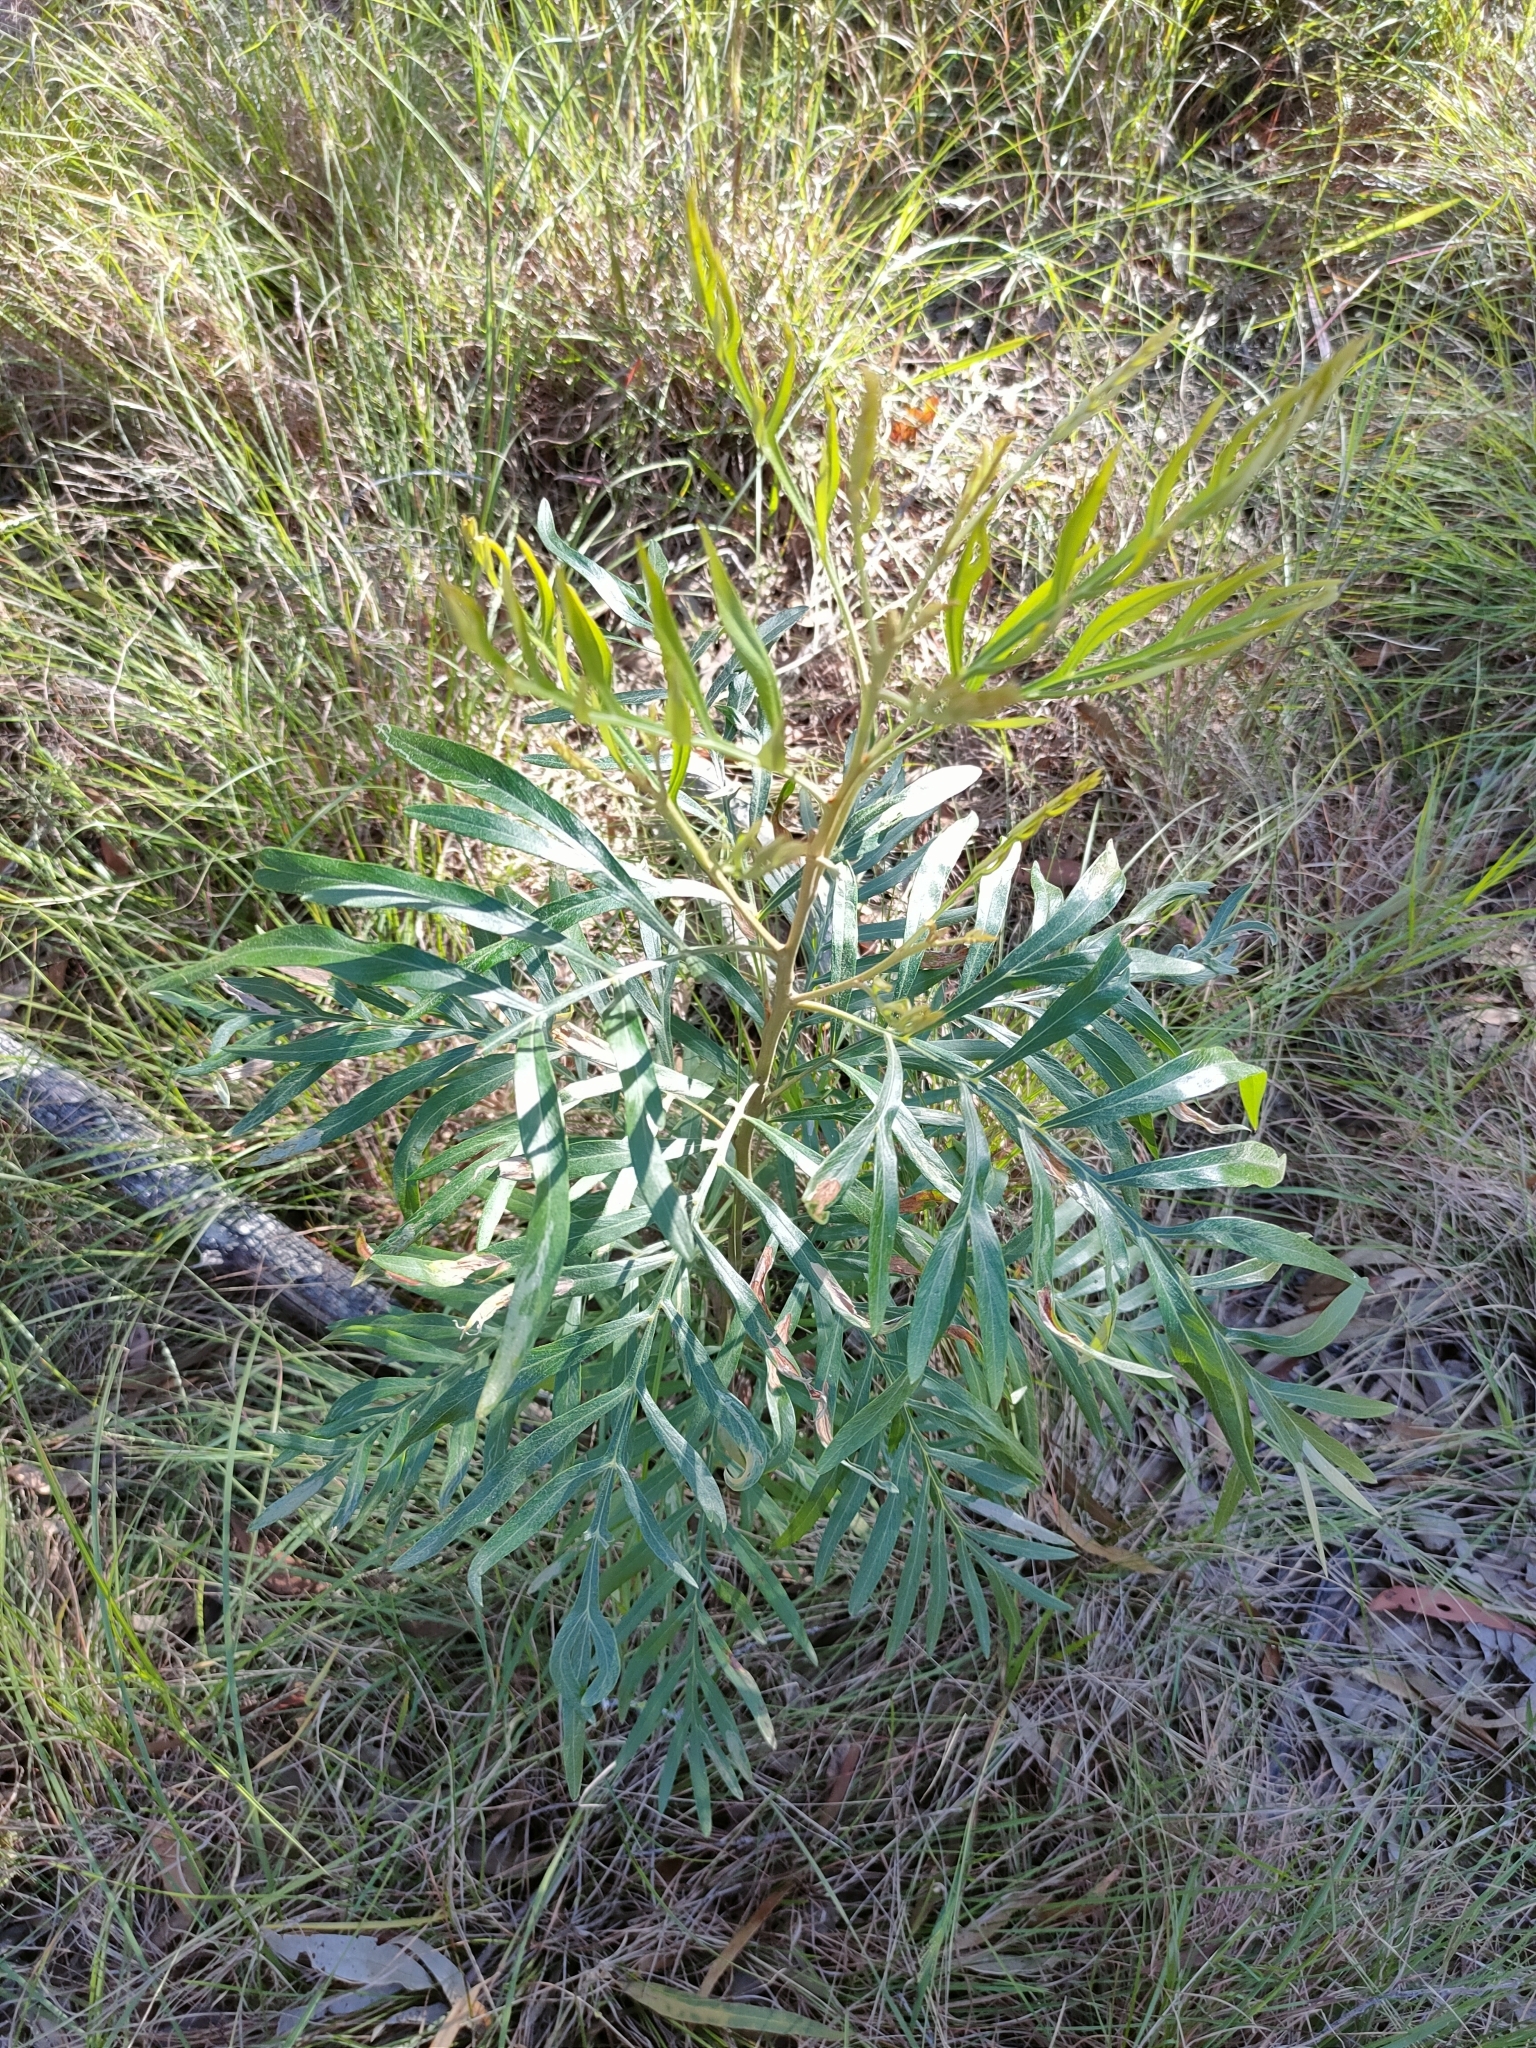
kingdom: Plantae
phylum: Tracheophyta
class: Magnoliopsida
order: Proteales
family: Proteaceae
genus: Grevillea
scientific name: Grevillea banksii
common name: Kahili flower
